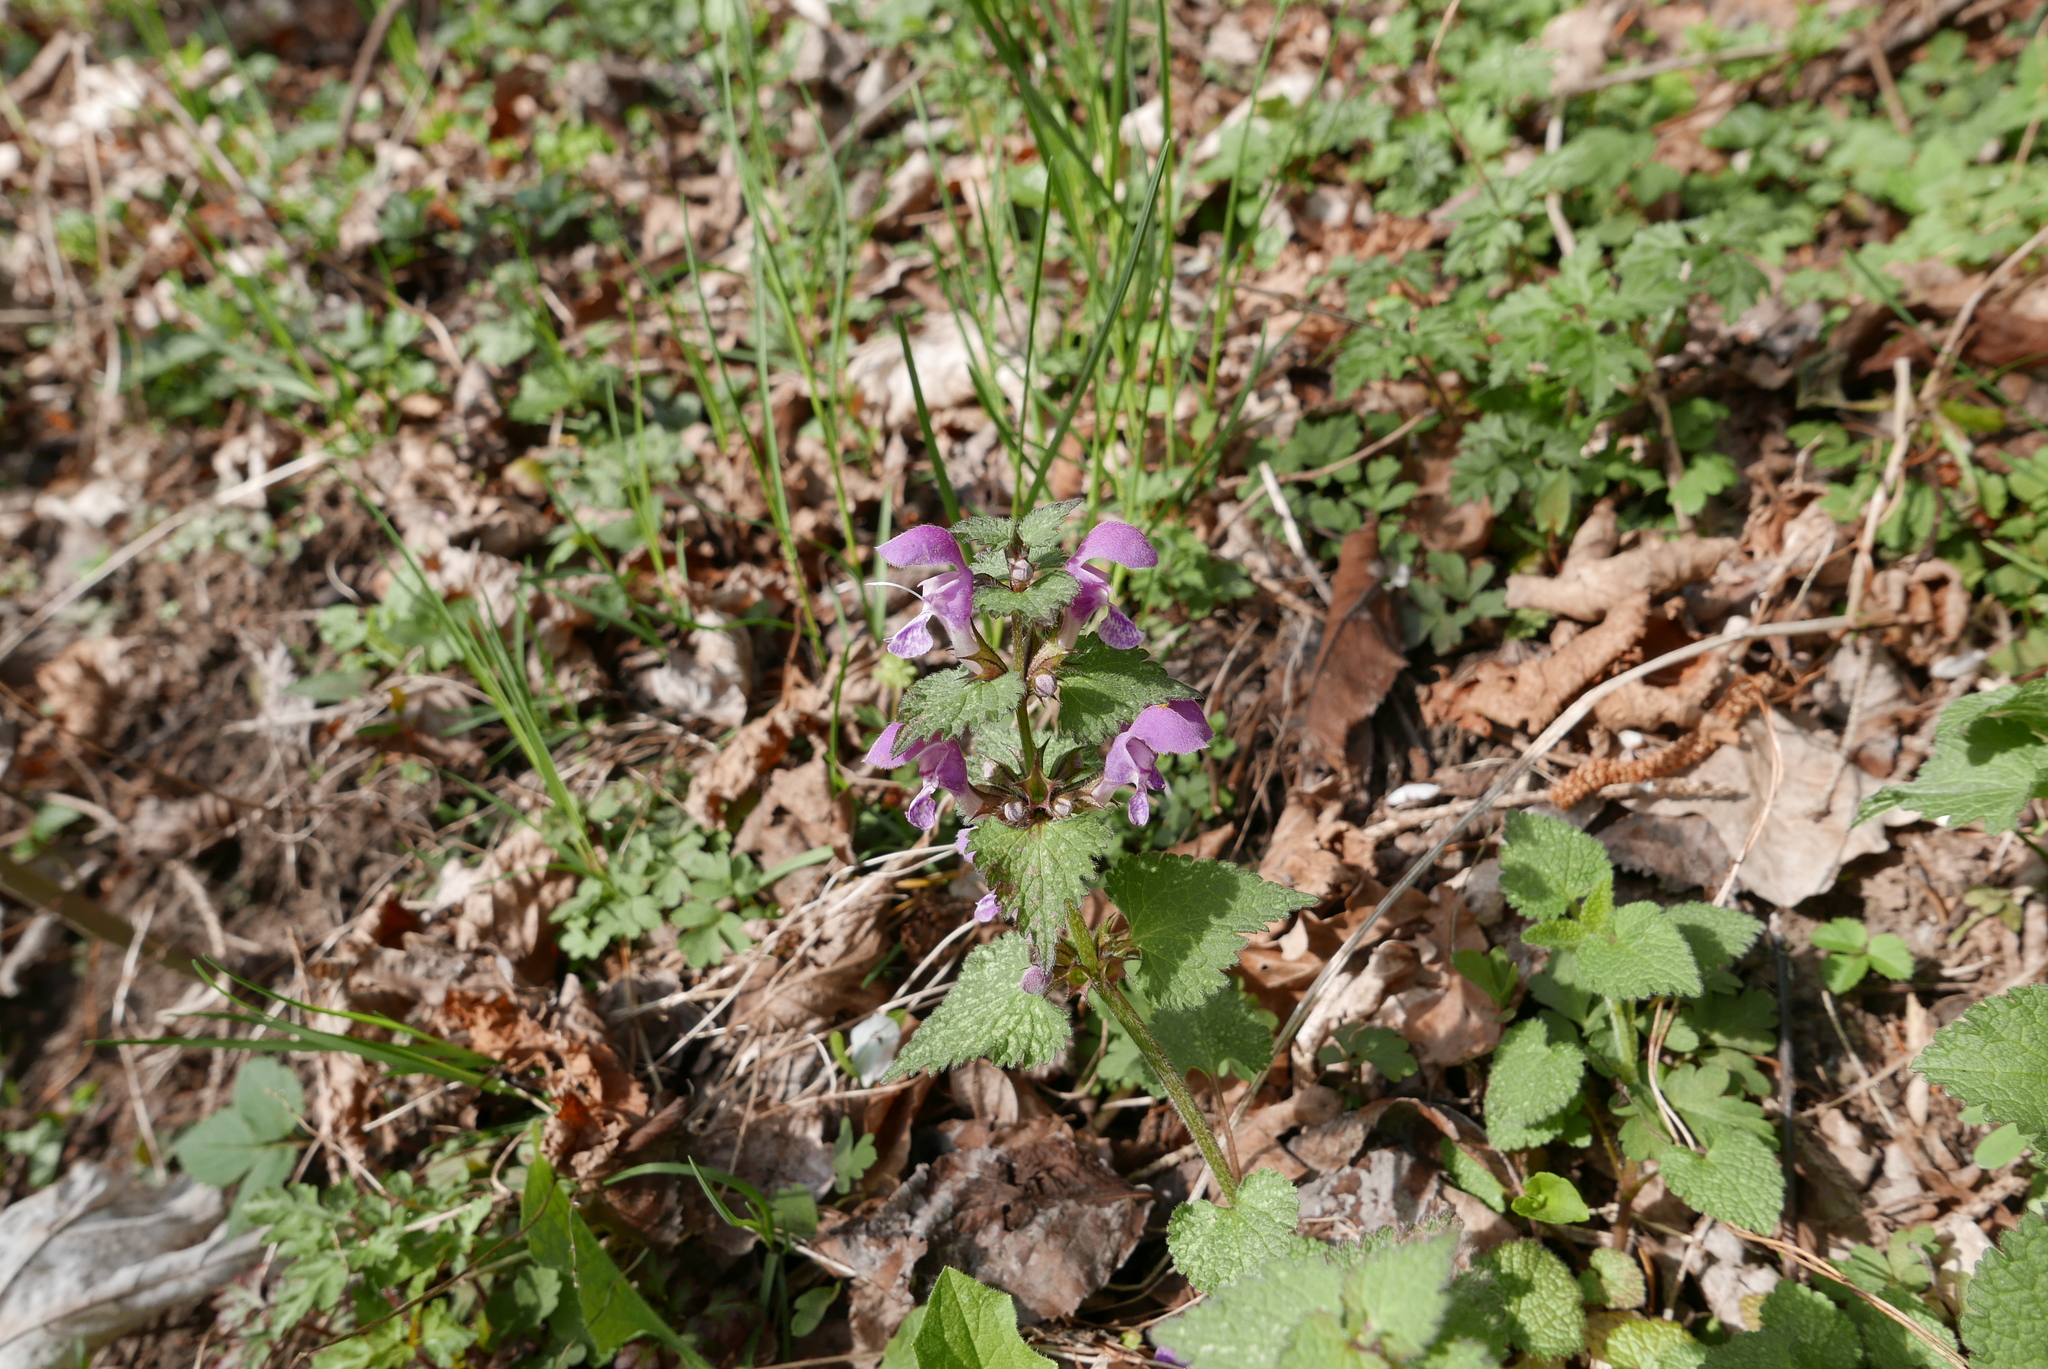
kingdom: Plantae
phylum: Tracheophyta
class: Magnoliopsida
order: Lamiales
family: Lamiaceae
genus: Lamium
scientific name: Lamium maculatum
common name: Spotted dead-nettle
